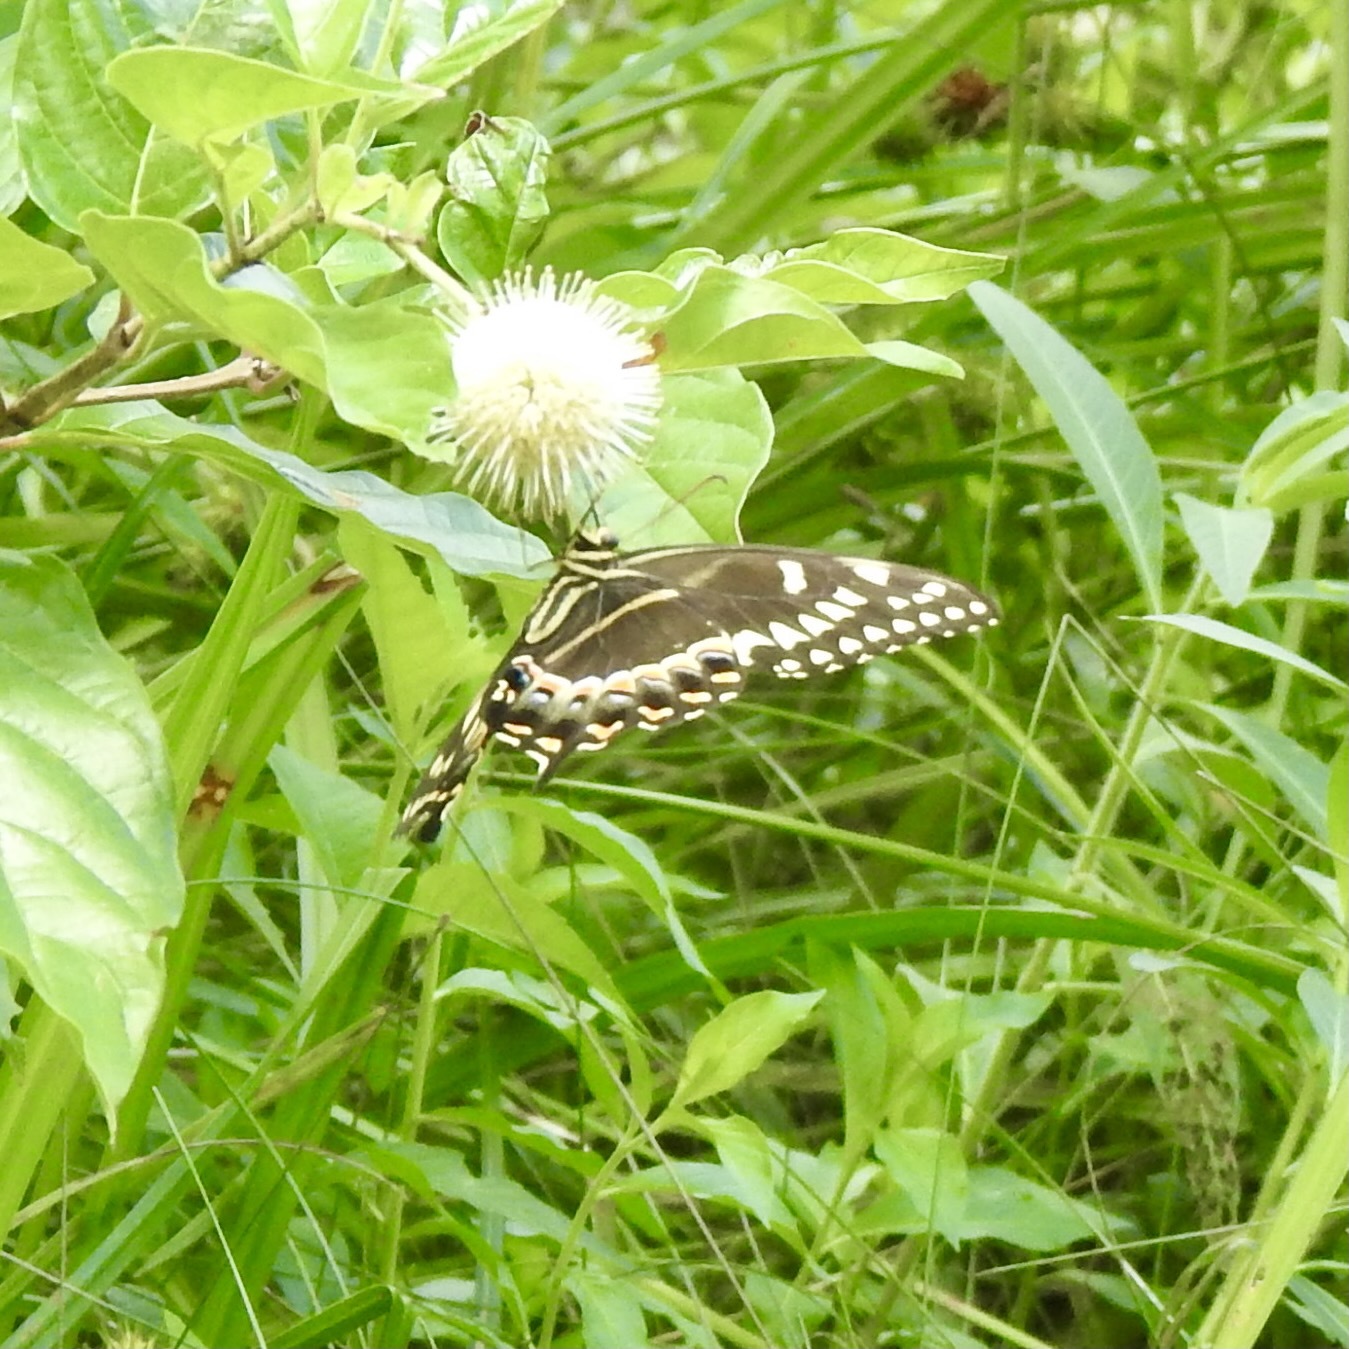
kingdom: Animalia
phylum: Arthropoda
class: Insecta
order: Lepidoptera
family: Papilionidae
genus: Papilio
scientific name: Papilio palamedes
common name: Palamedes swallowtail
